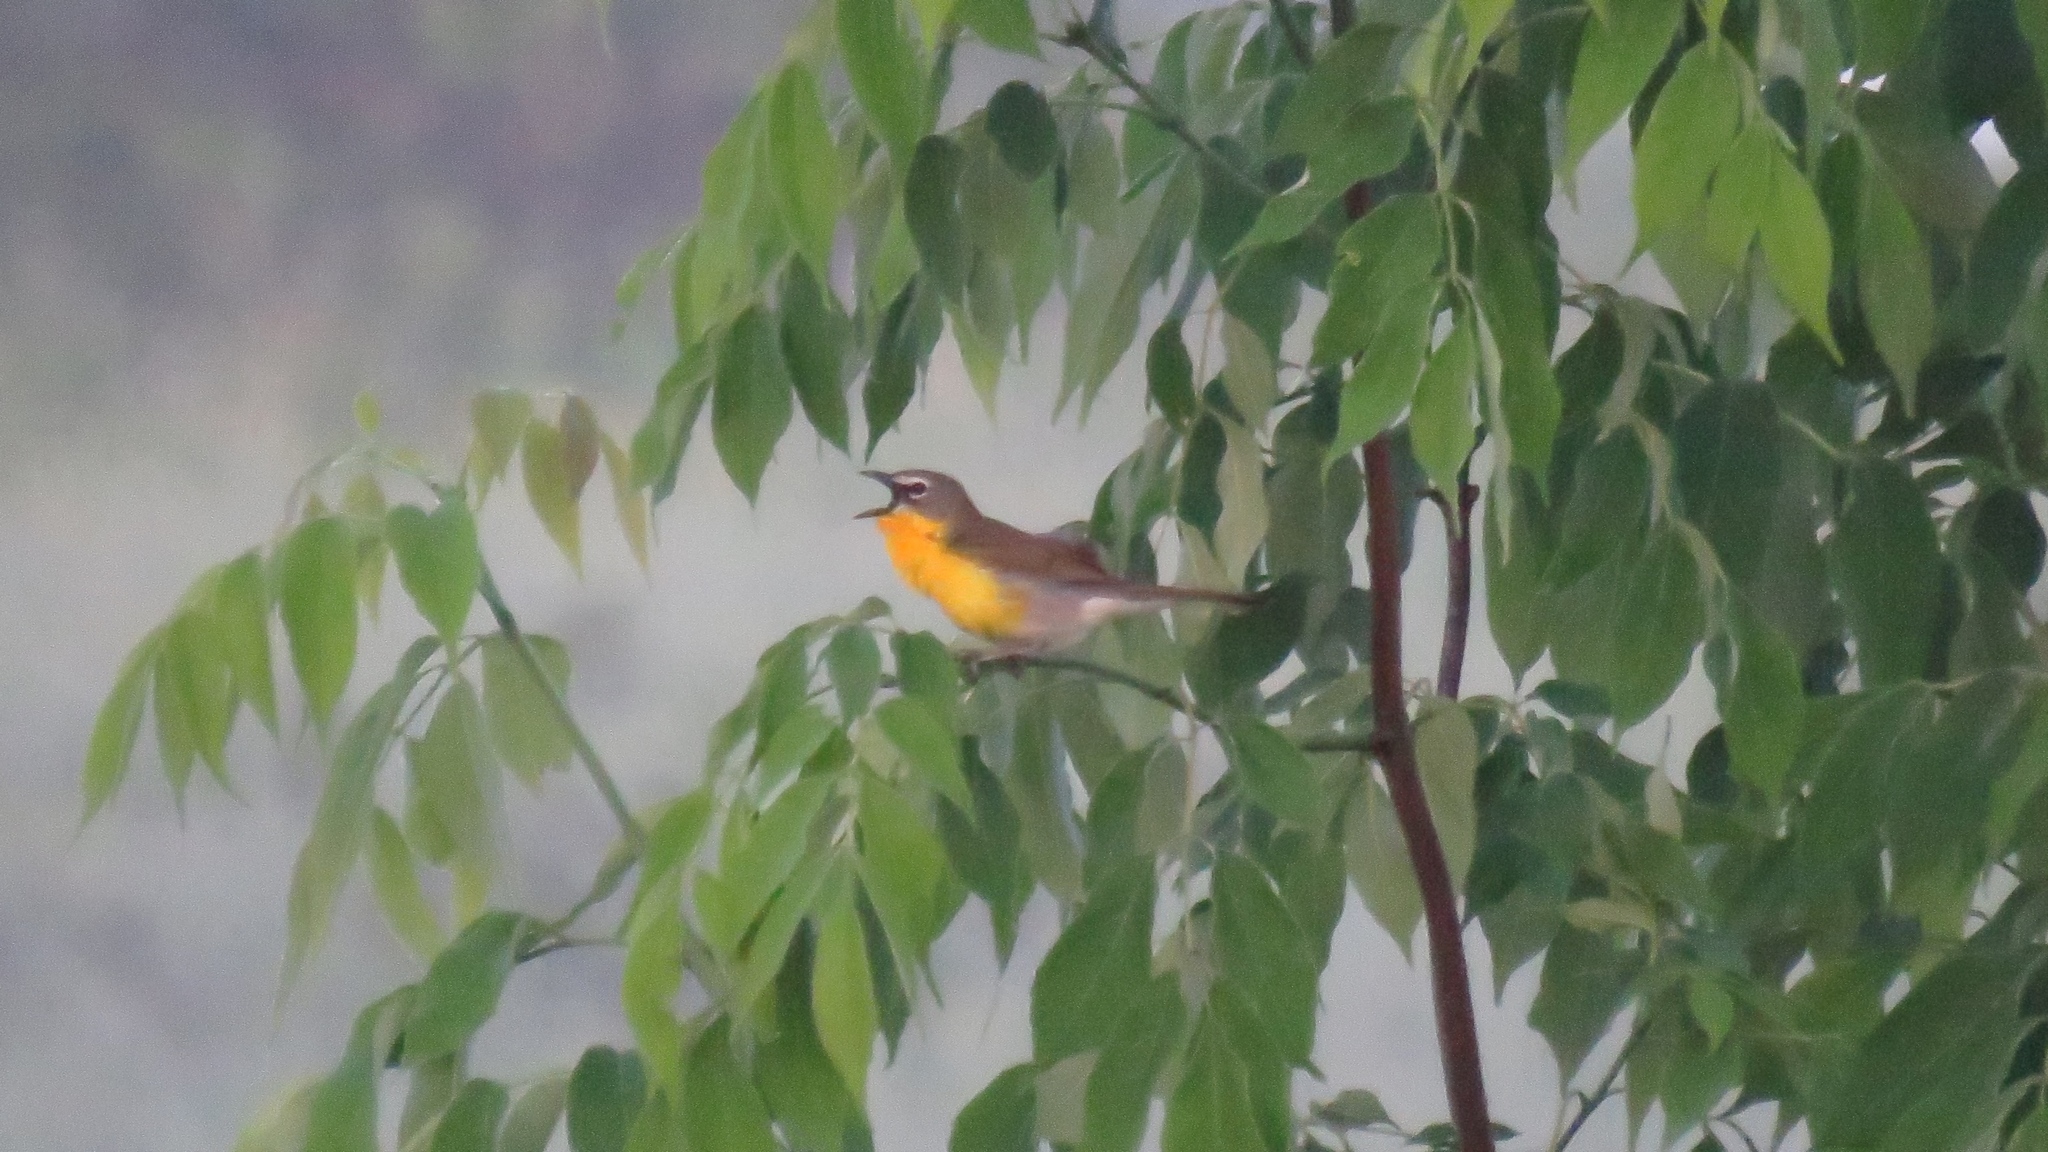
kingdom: Animalia
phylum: Chordata
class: Aves
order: Passeriformes
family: Parulidae
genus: Icteria
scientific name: Icteria virens
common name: Yellow-breasted chat
